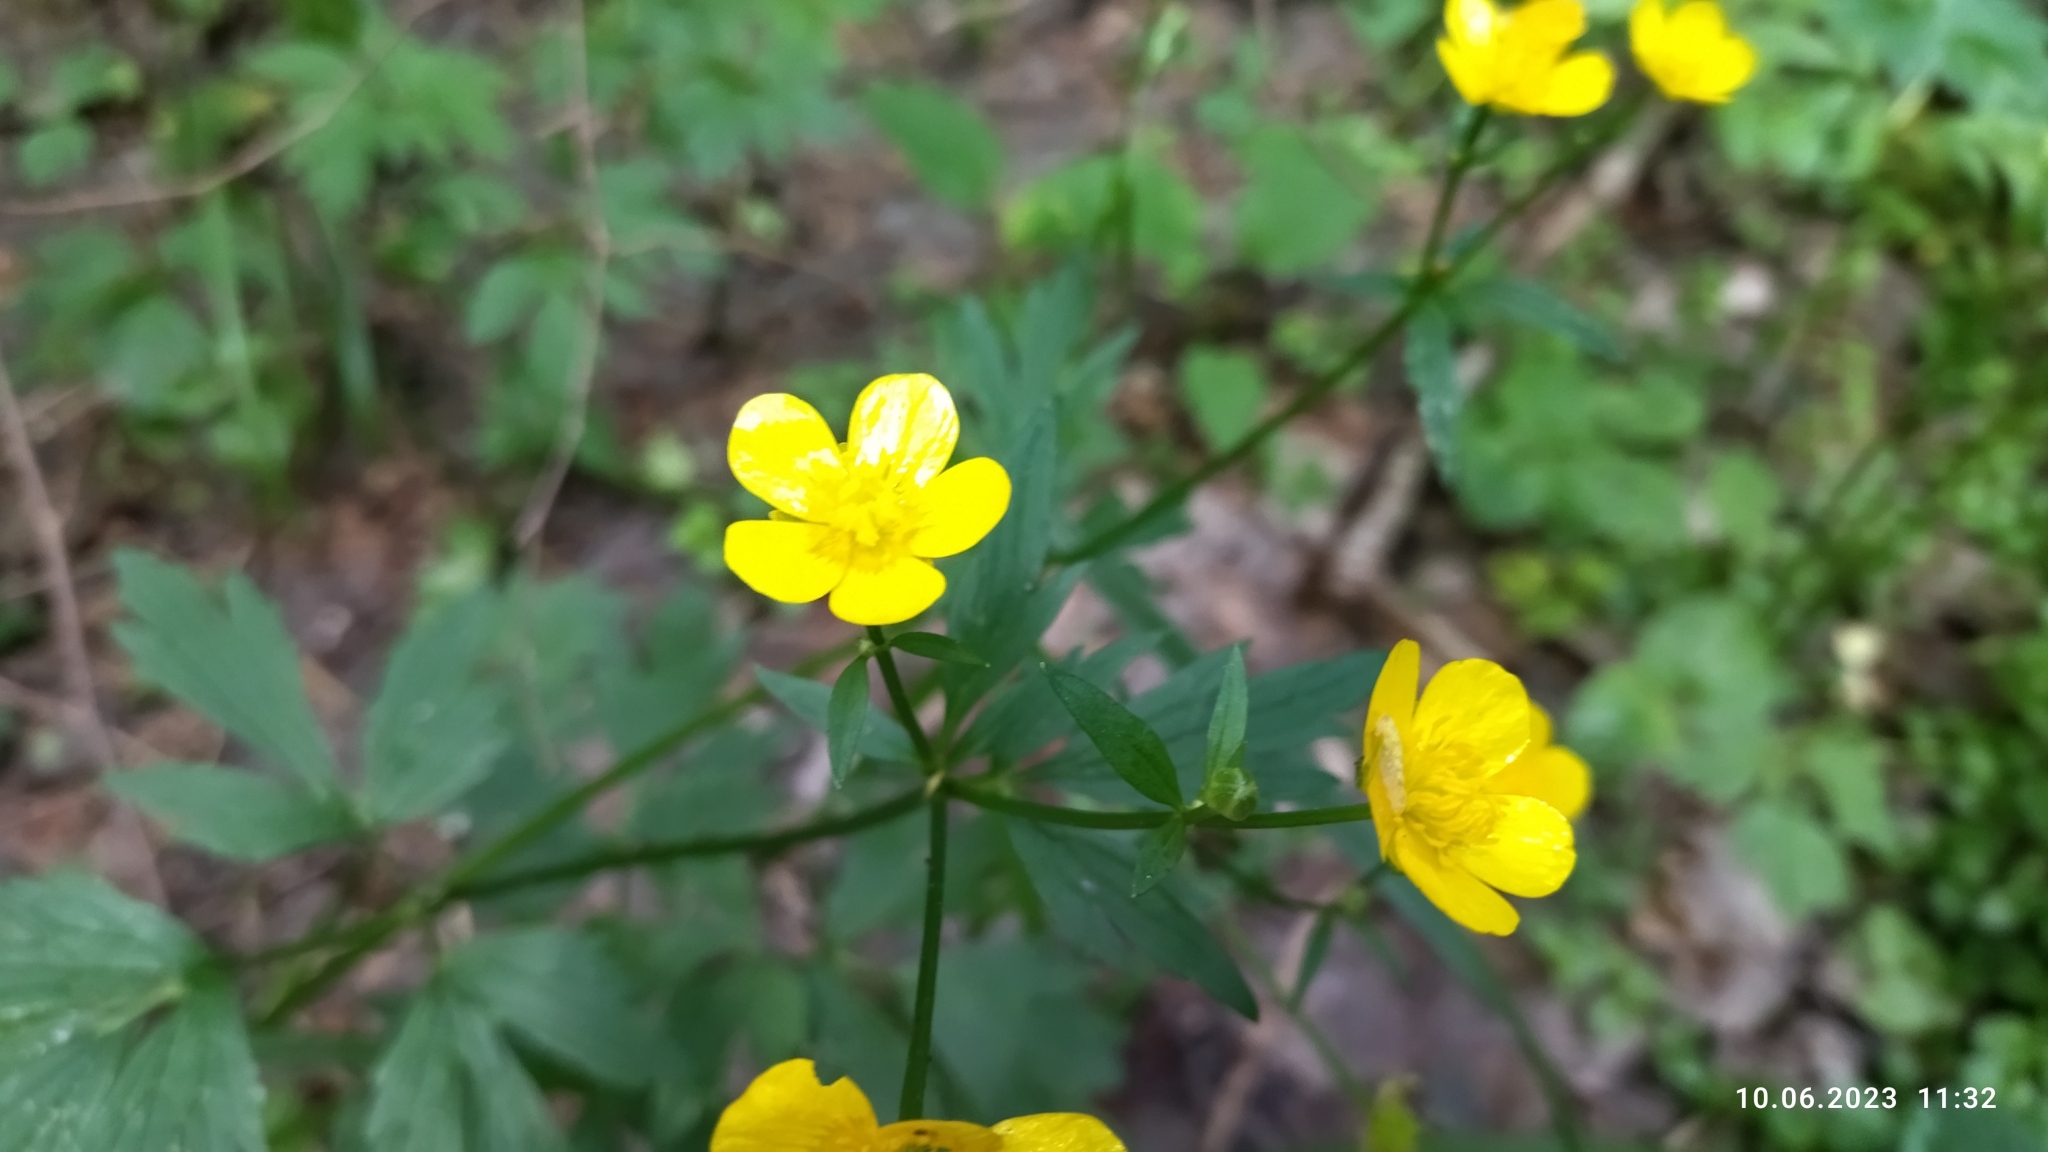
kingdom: Plantae
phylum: Tracheophyta
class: Magnoliopsida
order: Ranunculales
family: Ranunculaceae
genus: Ranunculus
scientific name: Ranunculus repens
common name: Creeping buttercup
